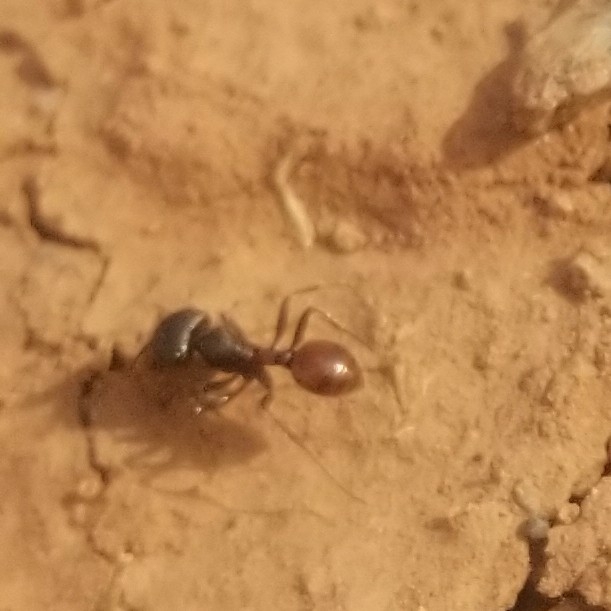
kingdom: Animalia
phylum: Arthropoda
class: Insecta
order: Hymenoptera
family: Formicidae
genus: Pogonomyrmex
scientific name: Pogonomyrmex rugosus
